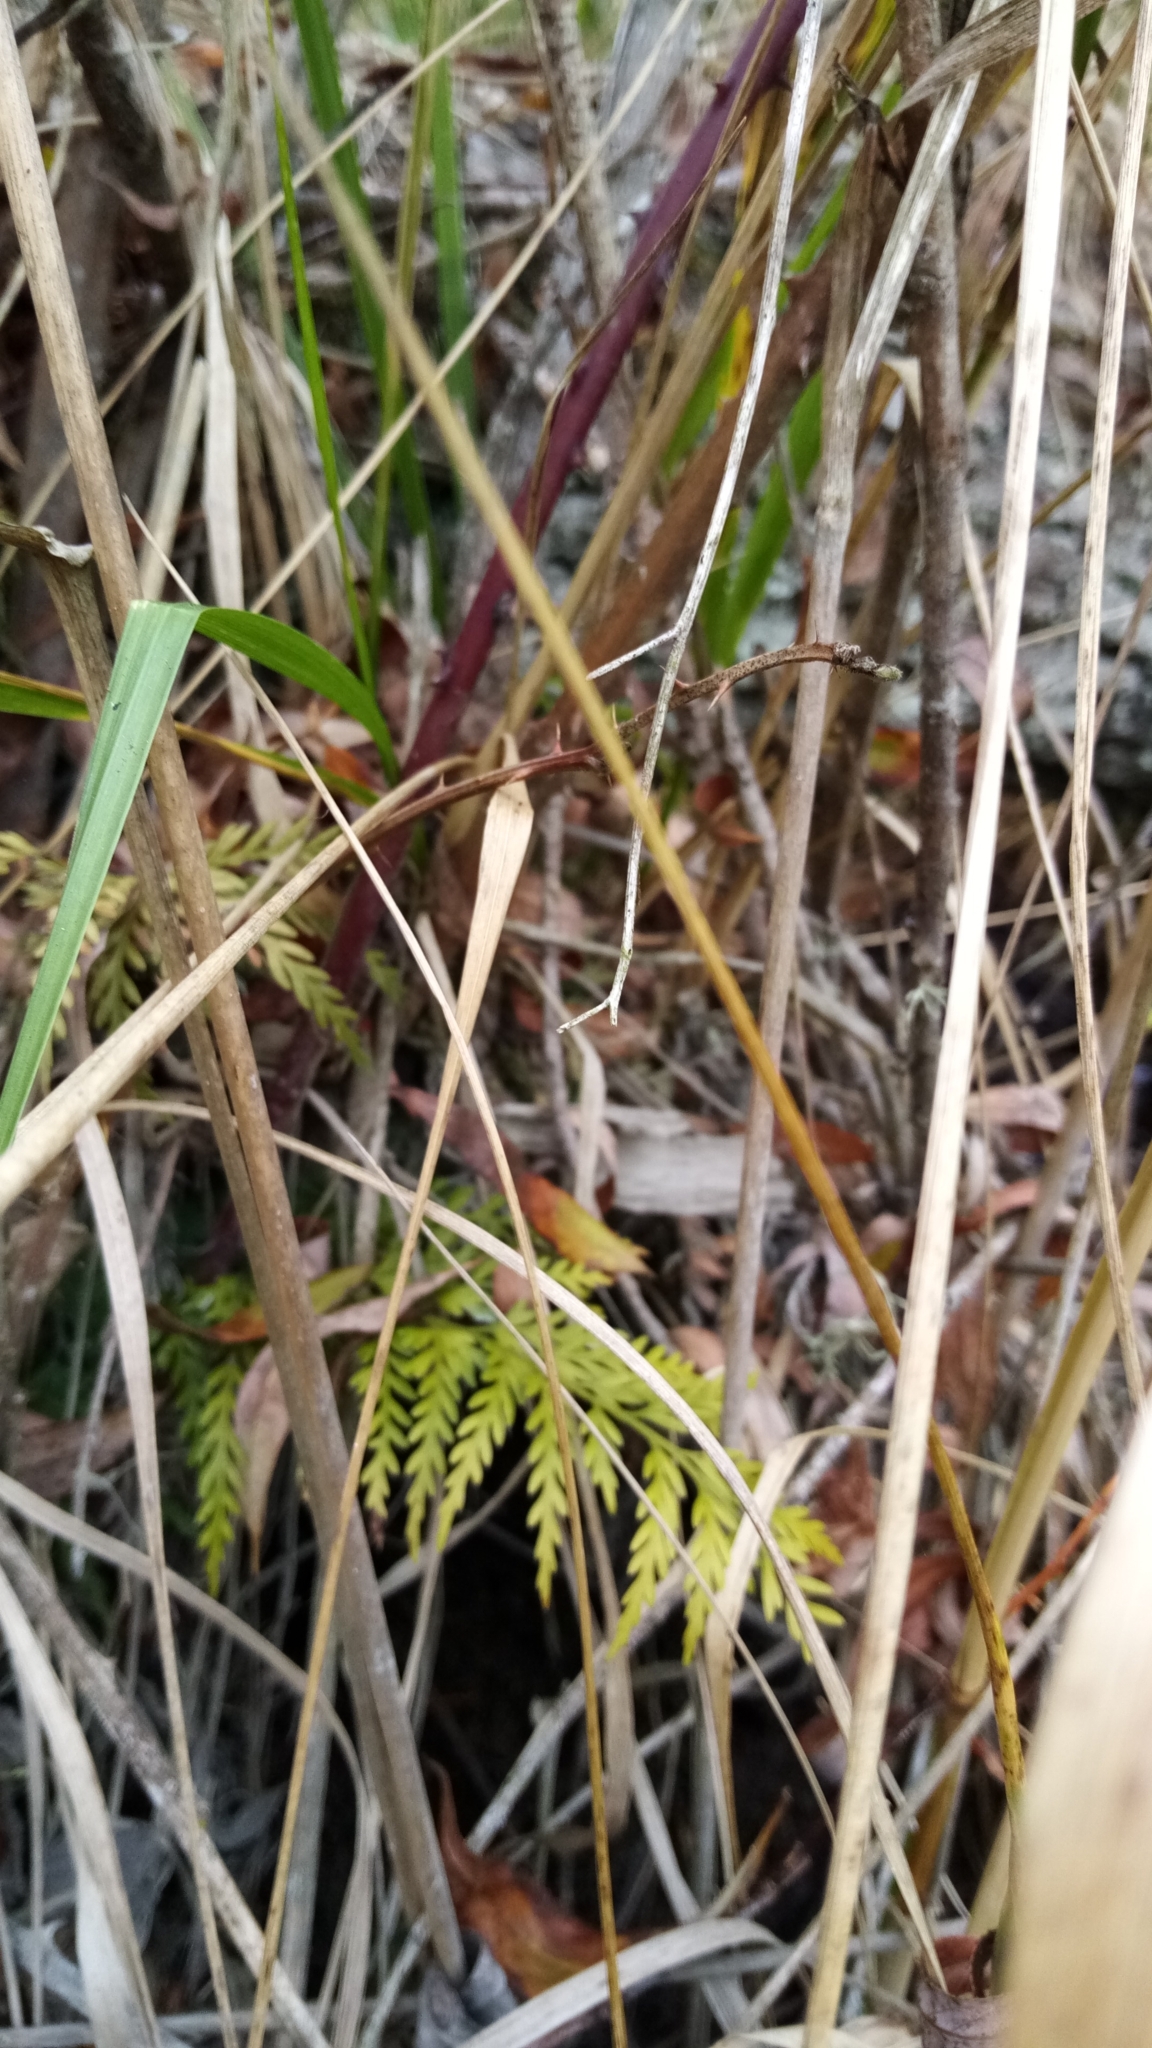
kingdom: Plantae
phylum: Tracheophyta
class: Polypodiopsida
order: Polypodiales
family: Aspleniaceae
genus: Asplenium
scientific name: Asplenium appendiculatum
